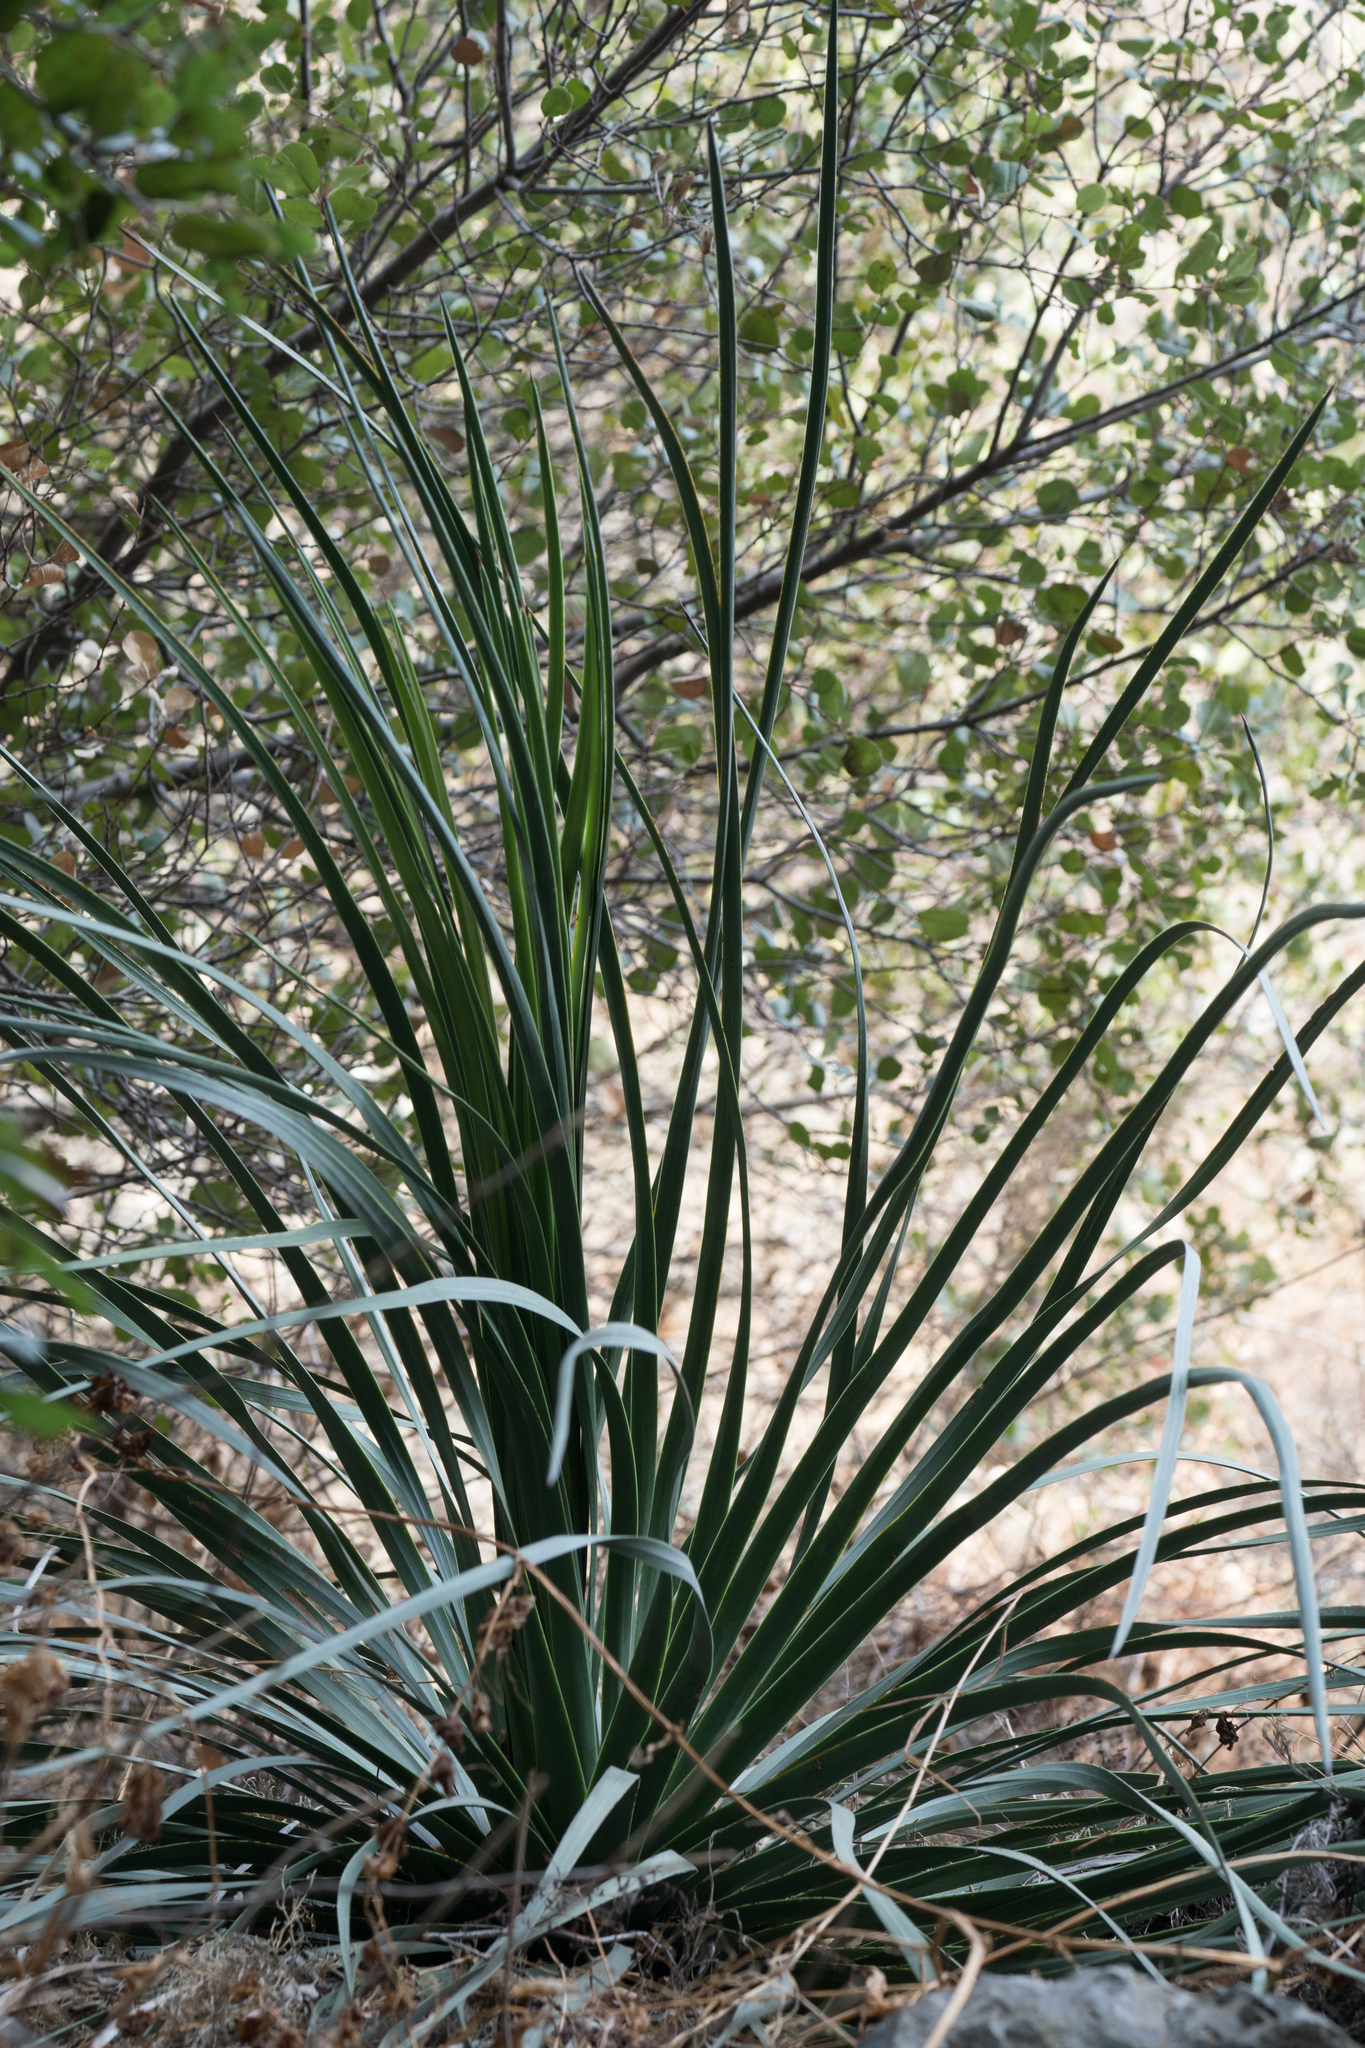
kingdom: Plantae
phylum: Tracheophyta
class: Liliopsida
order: Asparagales
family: Asparagaceae
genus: Hesperoyucca
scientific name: Hesperoyucca whipplei
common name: Our lord's-candle
